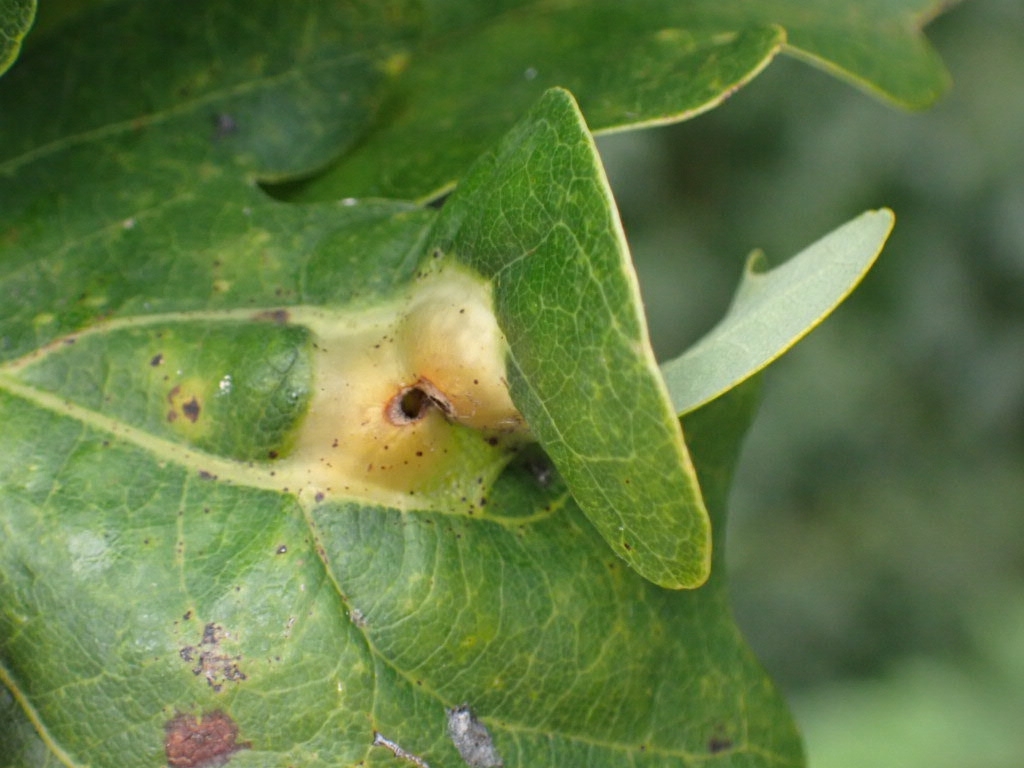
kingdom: Animalia
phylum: Arthropoda
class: Insecta
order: Hymenoptera
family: Cynipidae
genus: Andricus
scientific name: Andricus curvator
